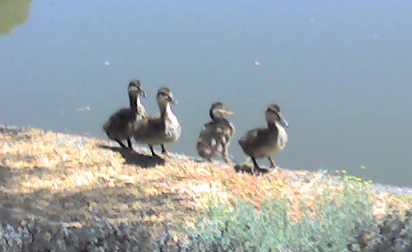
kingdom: Animalia
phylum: Chordata
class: Aves
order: Anseriformes
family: Anatidae
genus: Anas
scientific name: Anas platyrhynchos
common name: Mallard
